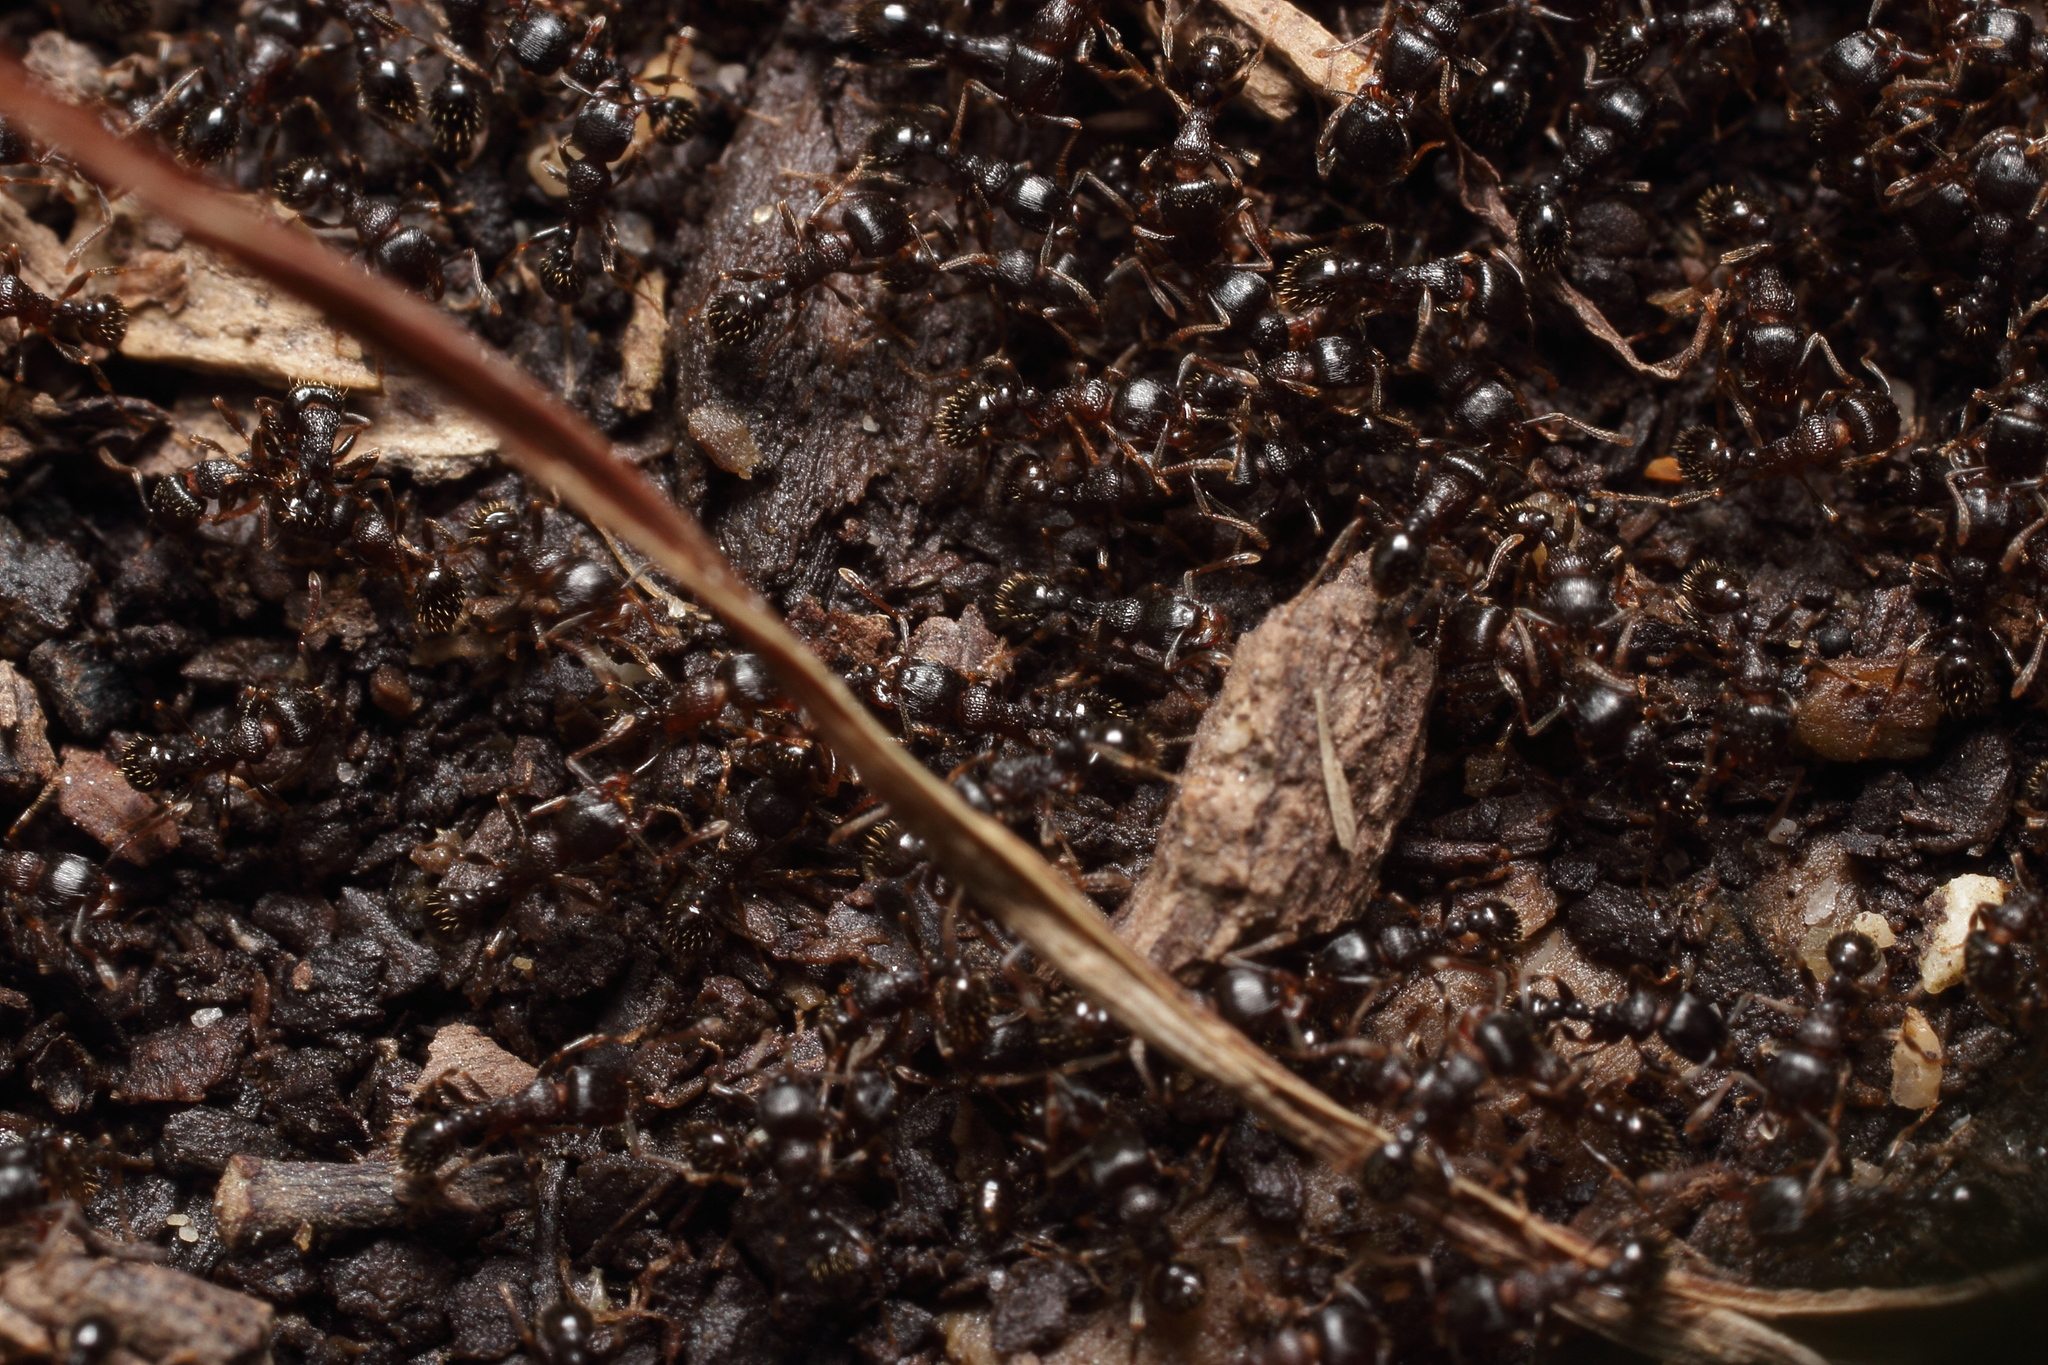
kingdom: Animalia
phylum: Arthropoda
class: Insecta
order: Hymenoptera
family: Formicidae
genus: Tetramorium
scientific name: Tetramorium tsushimae
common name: Ant
